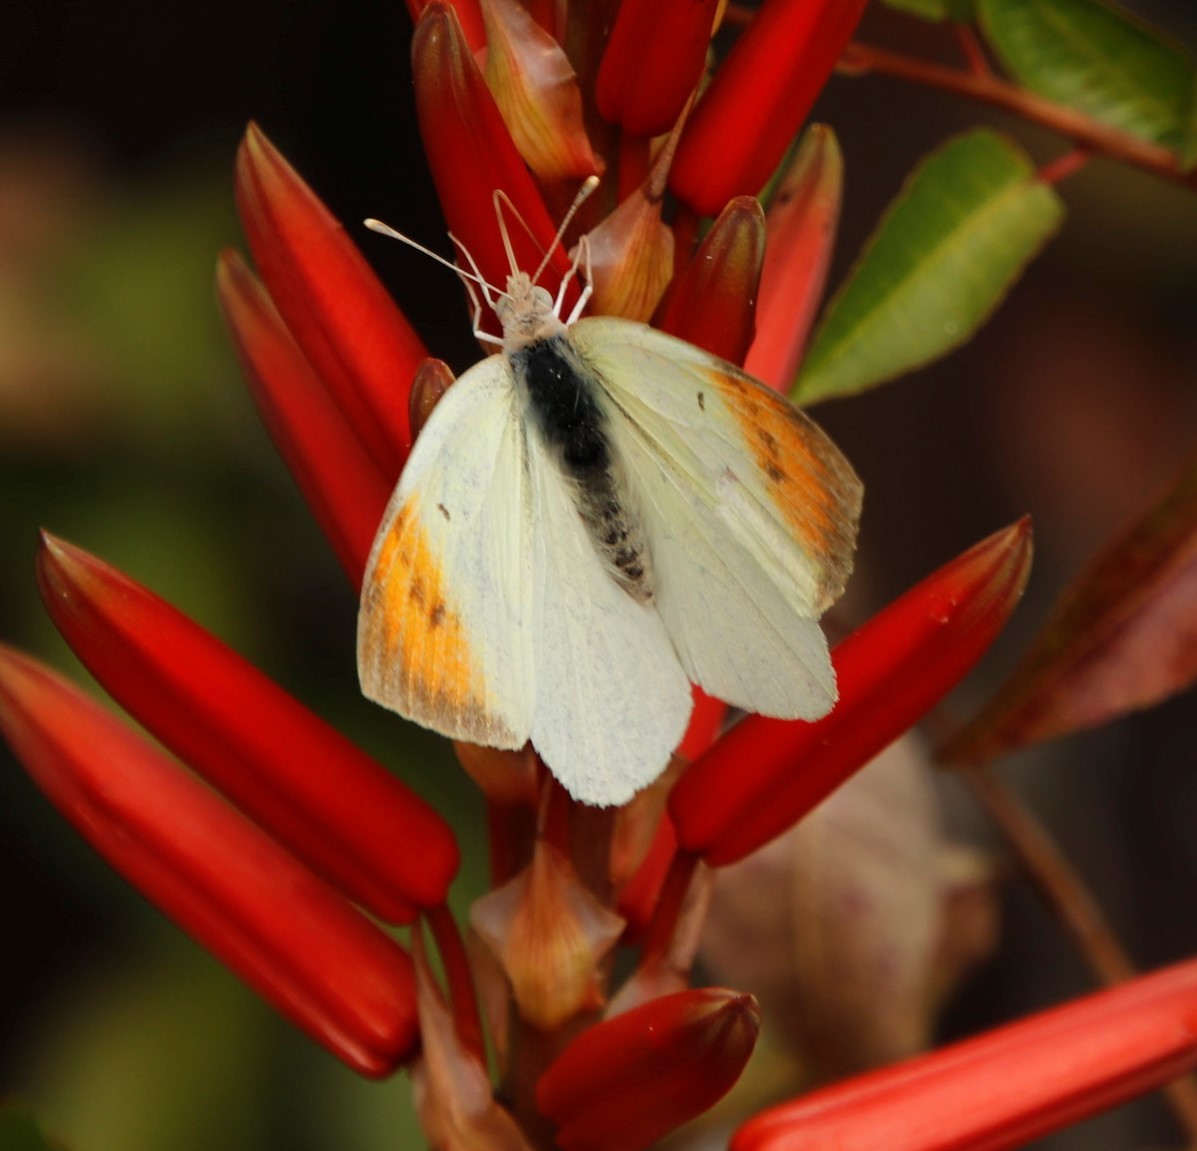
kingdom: Animalia
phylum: Arthropoda
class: Insecta
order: Lepidoptera
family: Pieridae
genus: Colotis
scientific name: Colotis subfasciatus
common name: Lemon traveller tip
